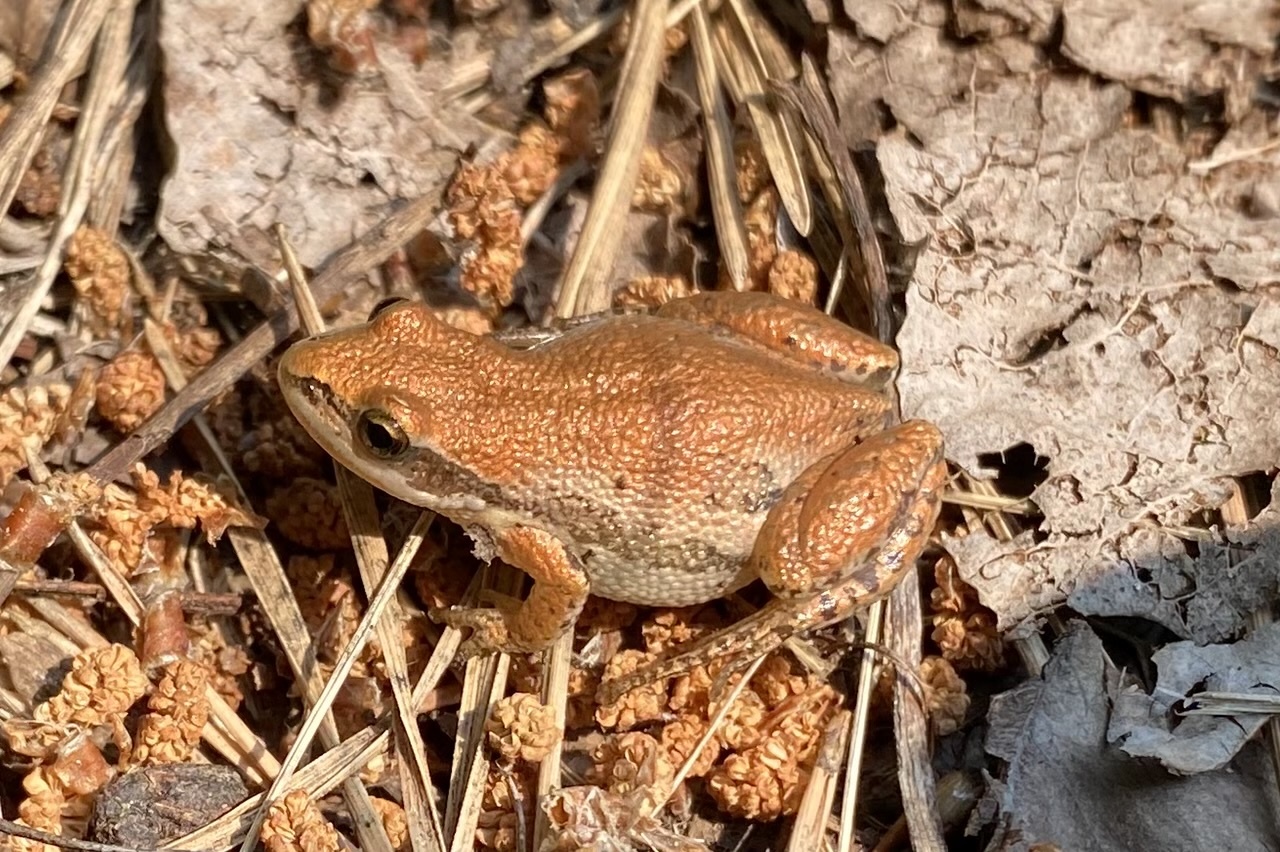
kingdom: Animalia
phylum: Chordata
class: Amphibia
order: Anura
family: Hylidae
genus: Pseudacris
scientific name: Pseudacris maculata
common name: Boreal chorus frog
